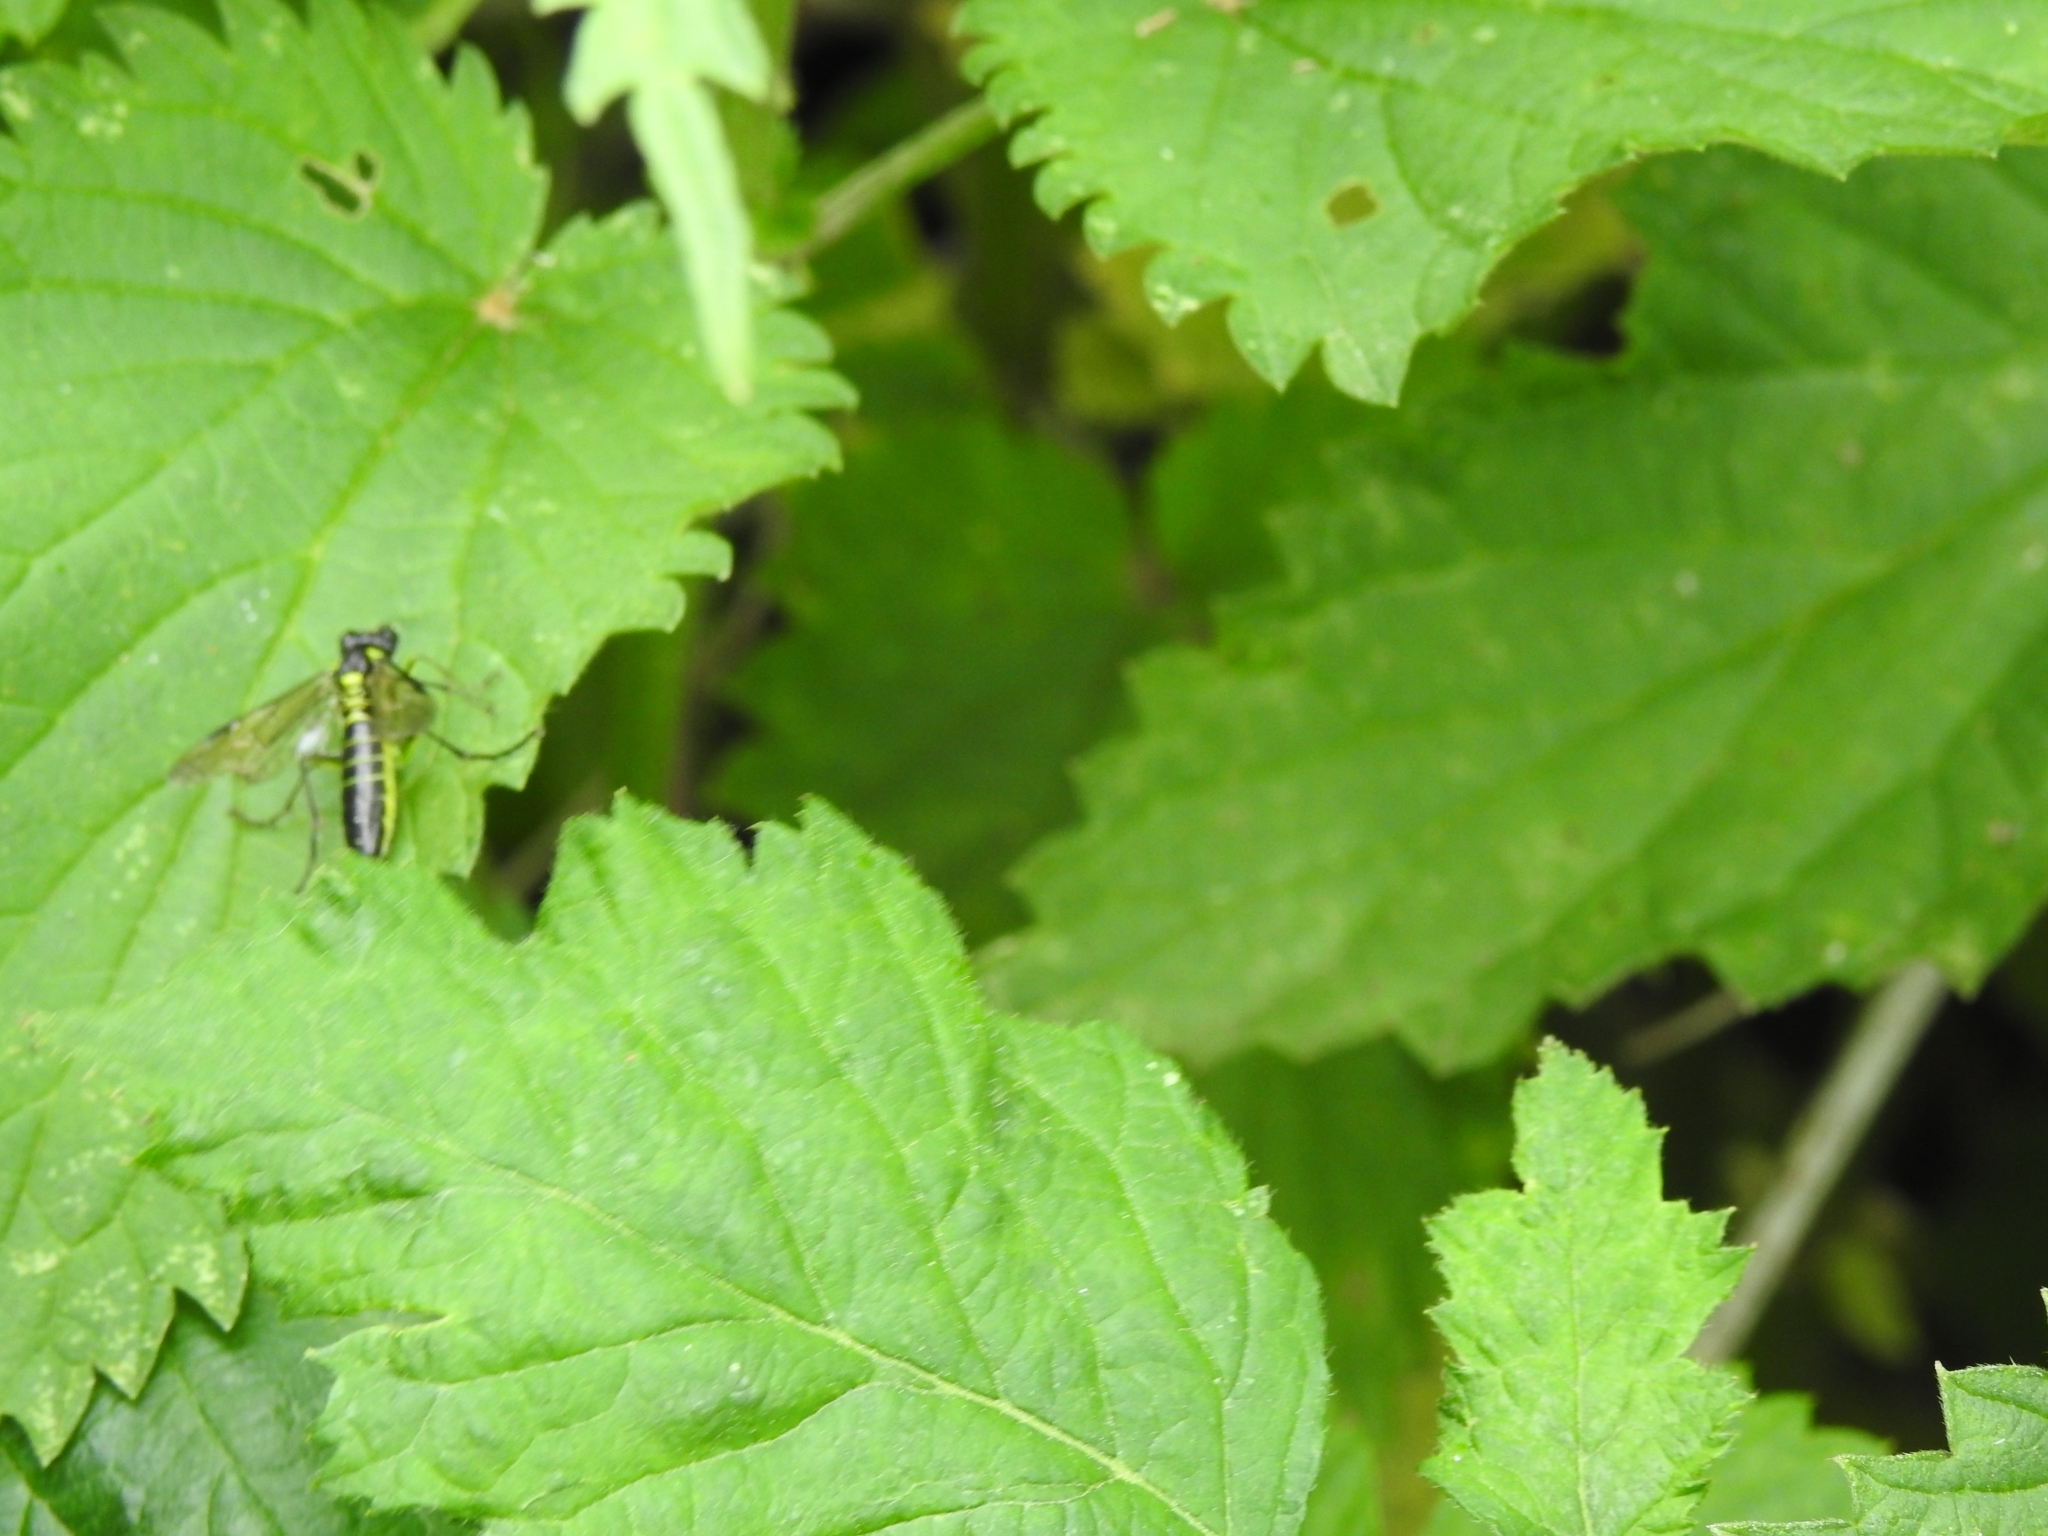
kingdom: Animalia
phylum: Arthropoda
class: Insecta
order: Hymenoptera
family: Tenthredinidae
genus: Tenthredo
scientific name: Tenthredo mesomela
